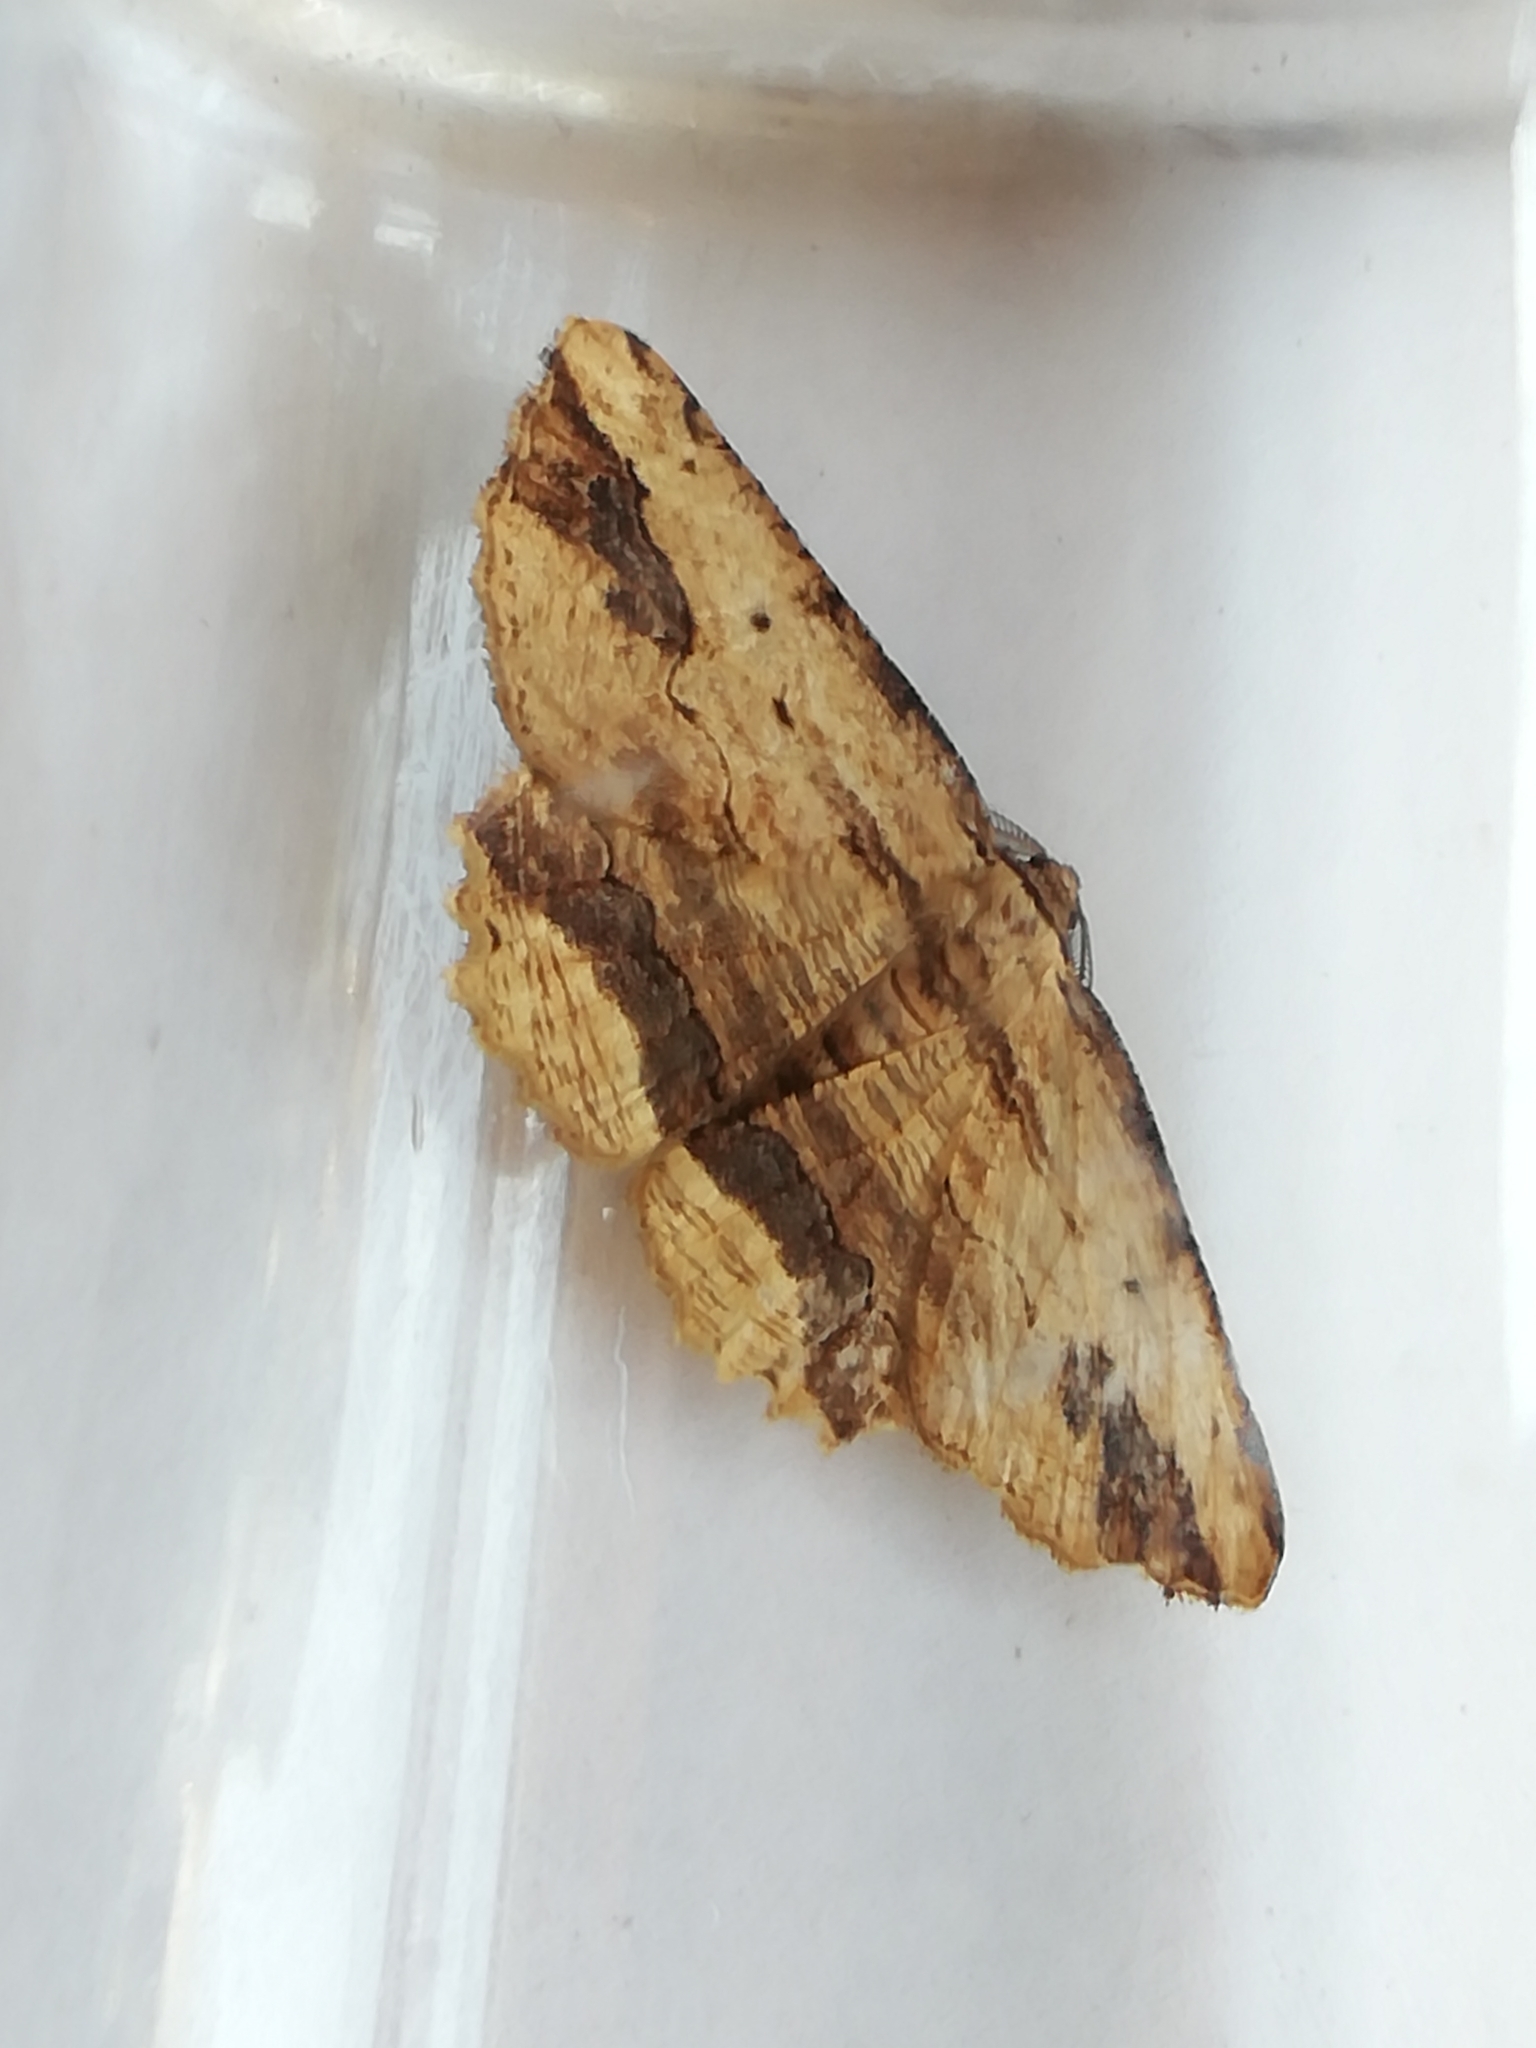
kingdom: Animalia
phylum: Arthropoda
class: Insecta
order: Lepidoptera
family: Geometridae
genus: Menophra
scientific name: Menophra abruptaria
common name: Waved umber
